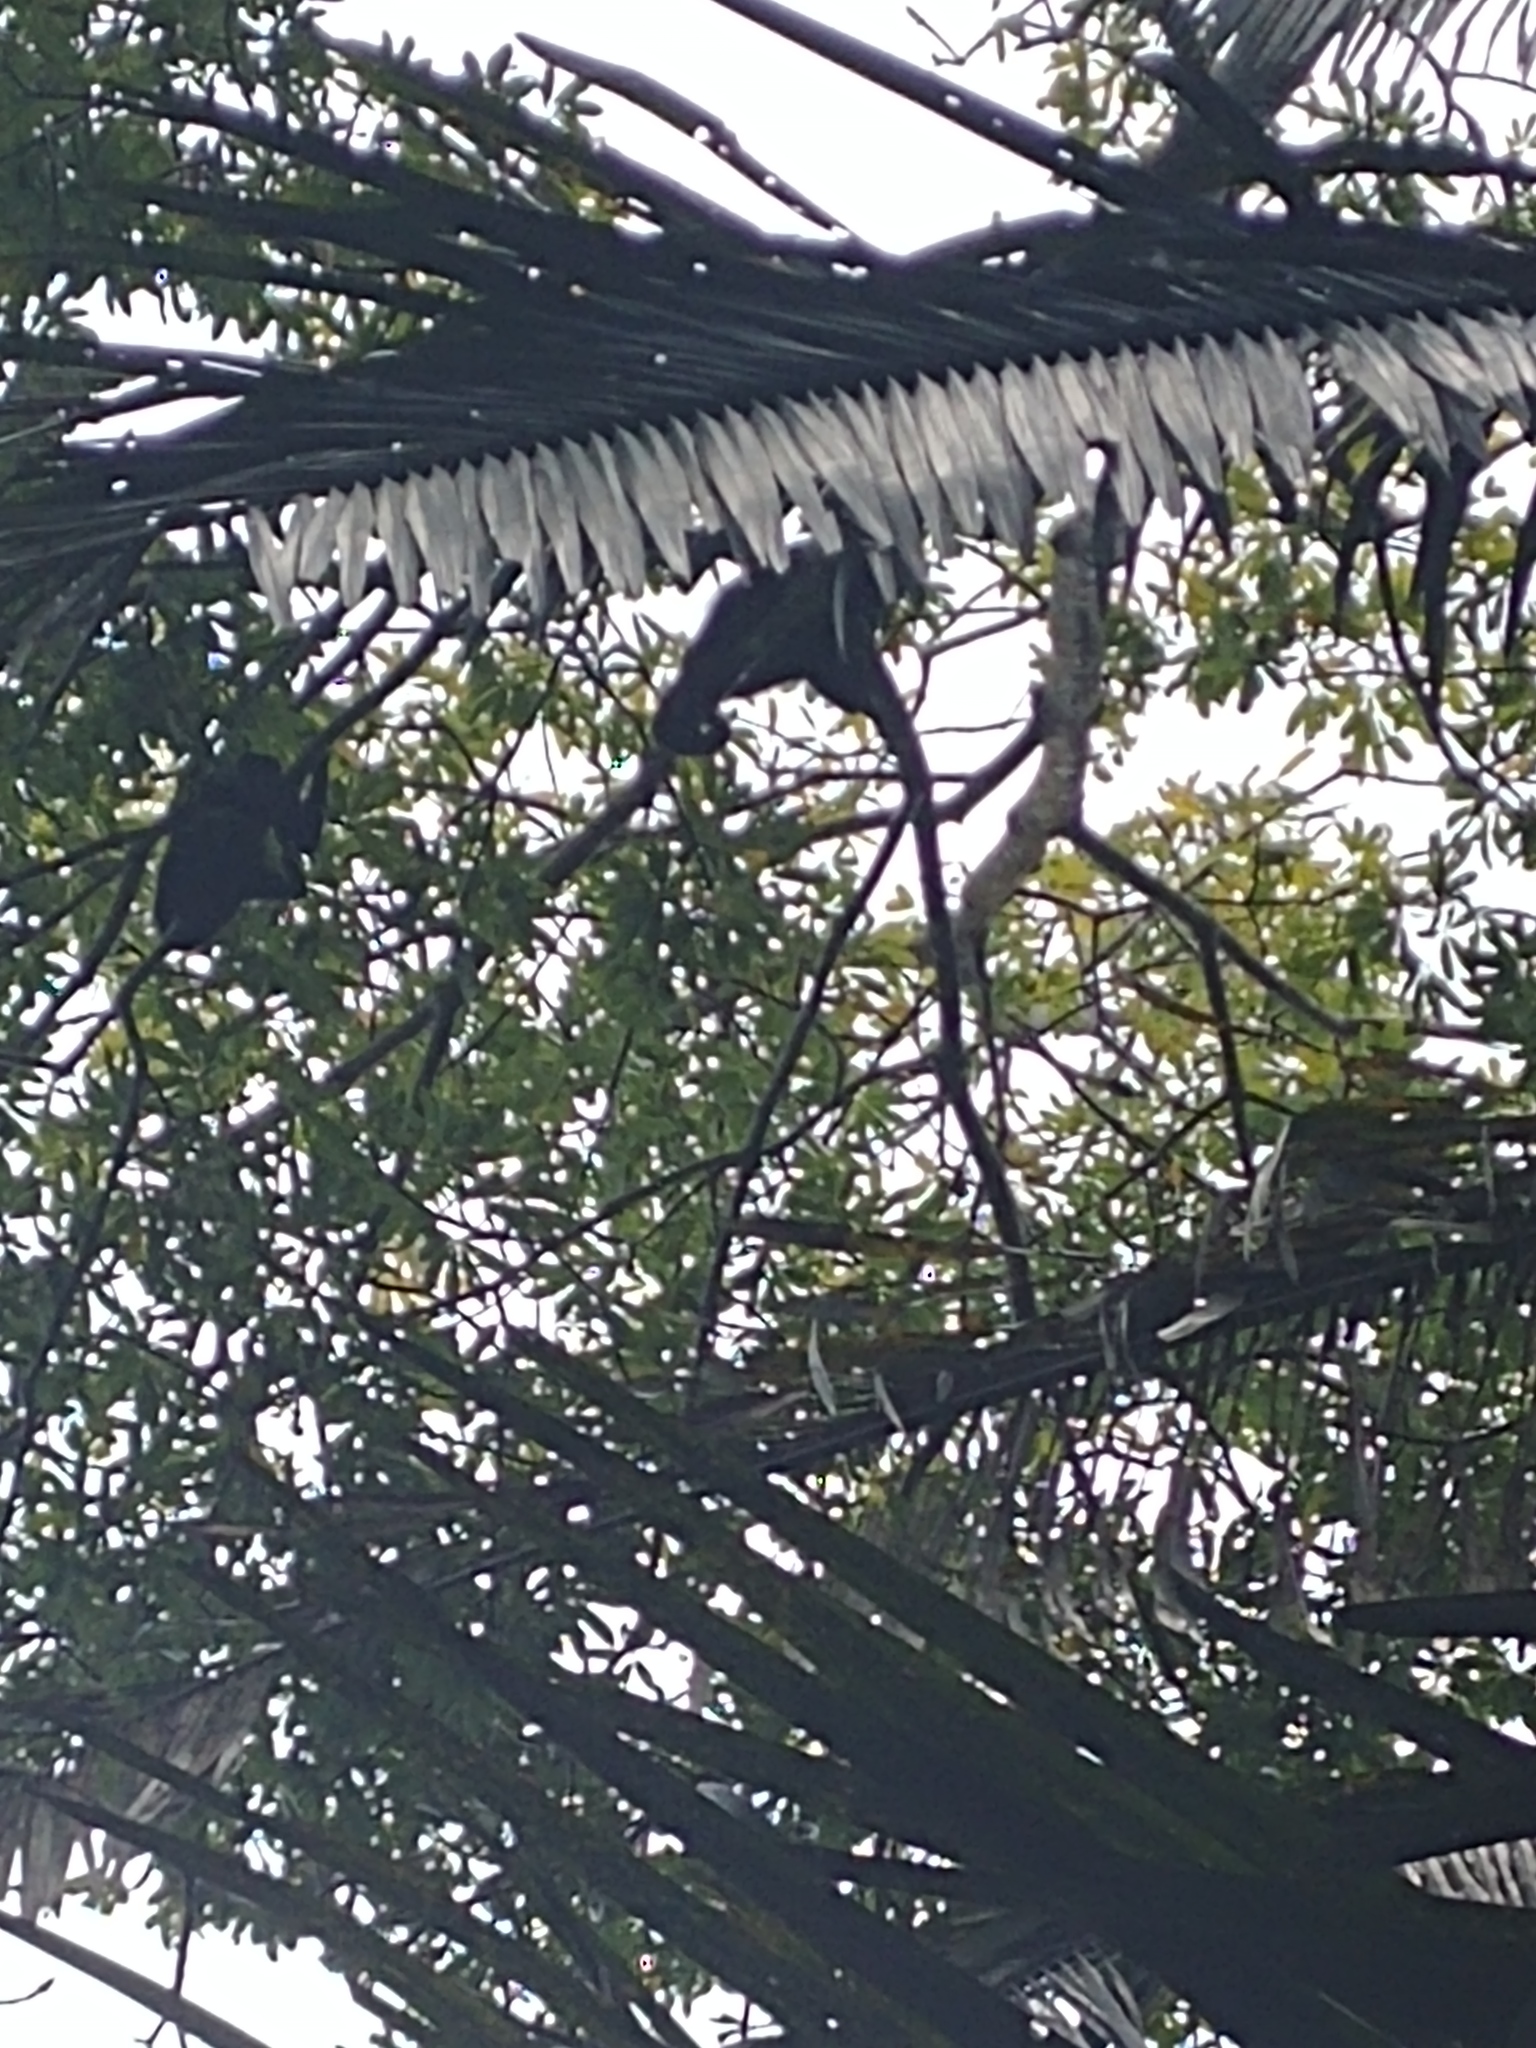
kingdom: Animalia
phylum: Chordata
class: Mammalia
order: Primates
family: Atelidae
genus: Alouatta
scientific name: Alouatta pigra
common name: Guatemalan black howler
